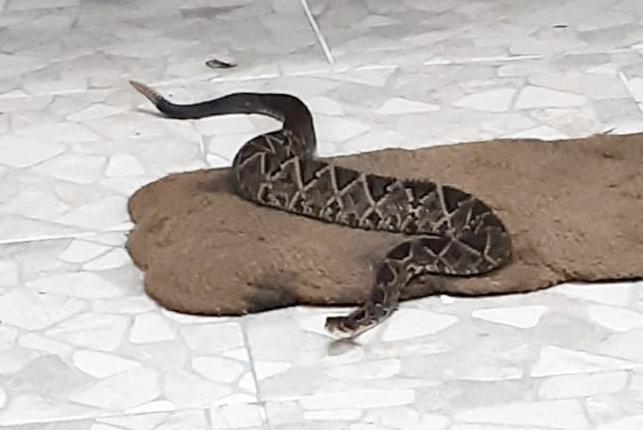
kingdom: Animalia
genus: Crotalus
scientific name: Crotalus durissus
